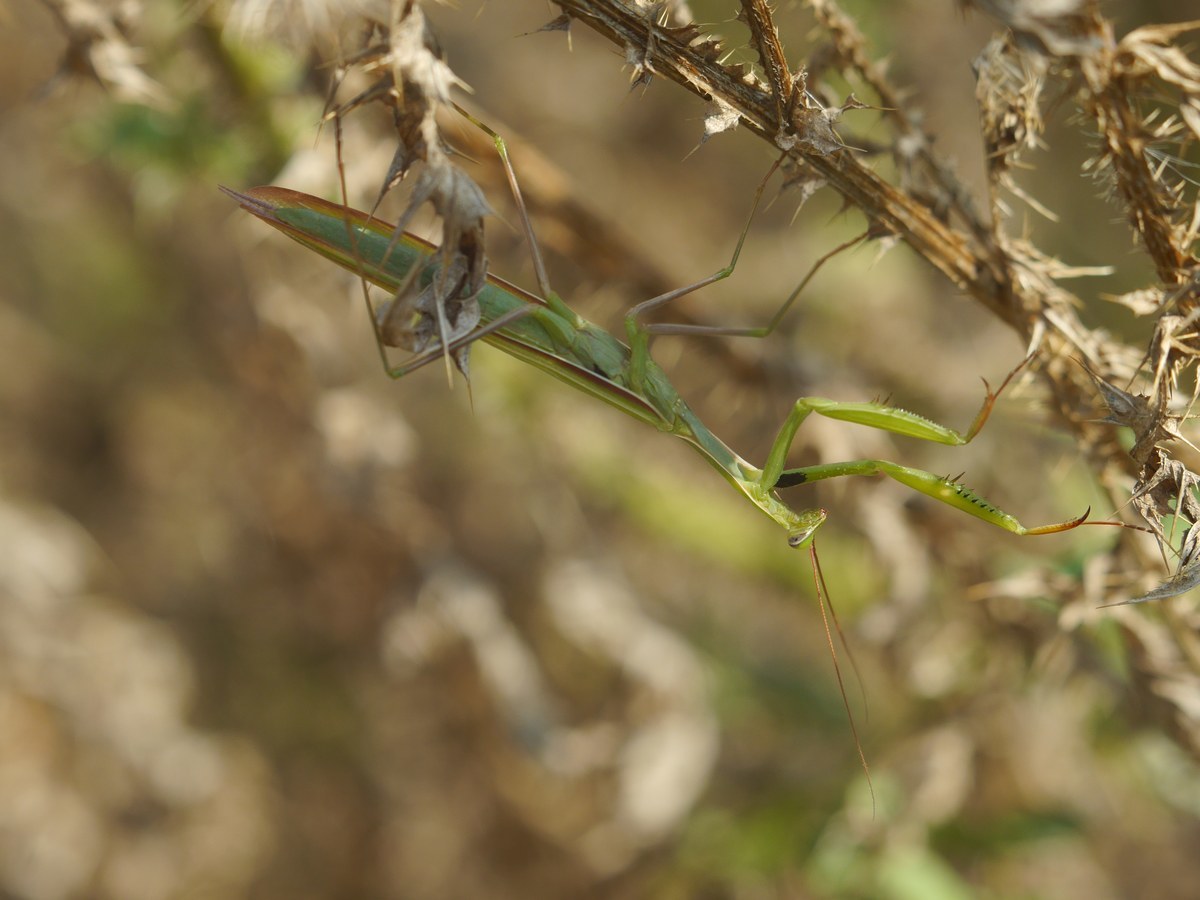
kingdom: Animalia
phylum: Arthropoda
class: Insecta
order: Mantodea
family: Mantidae
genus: Mantis
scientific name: Mantis religiosa
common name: Praying mantis
